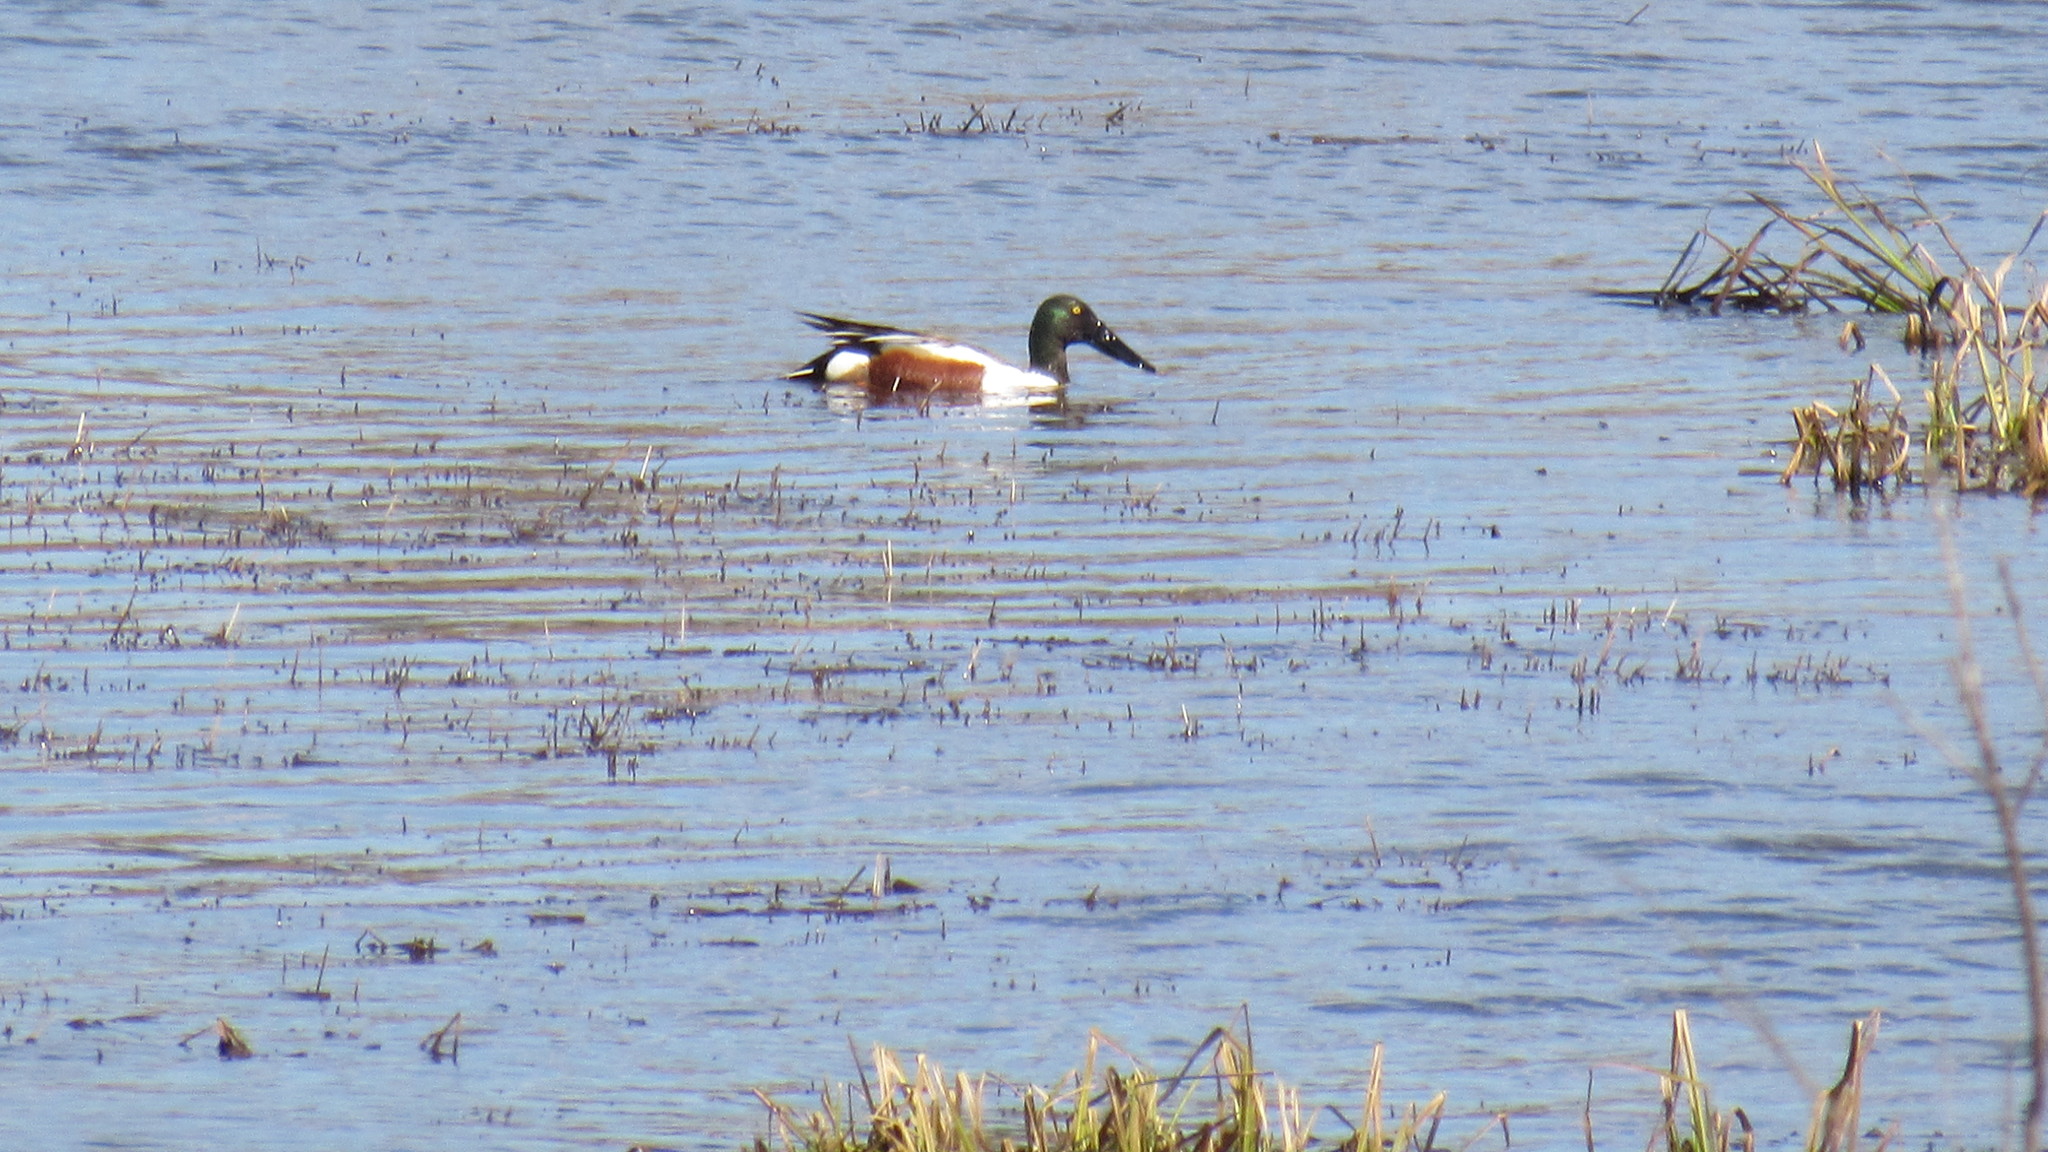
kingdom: Animalia
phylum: Chordata
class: Aves
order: Anseriformes
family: Anatidae
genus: Spatula
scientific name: Spatula clypeata
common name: Northern shoveler
